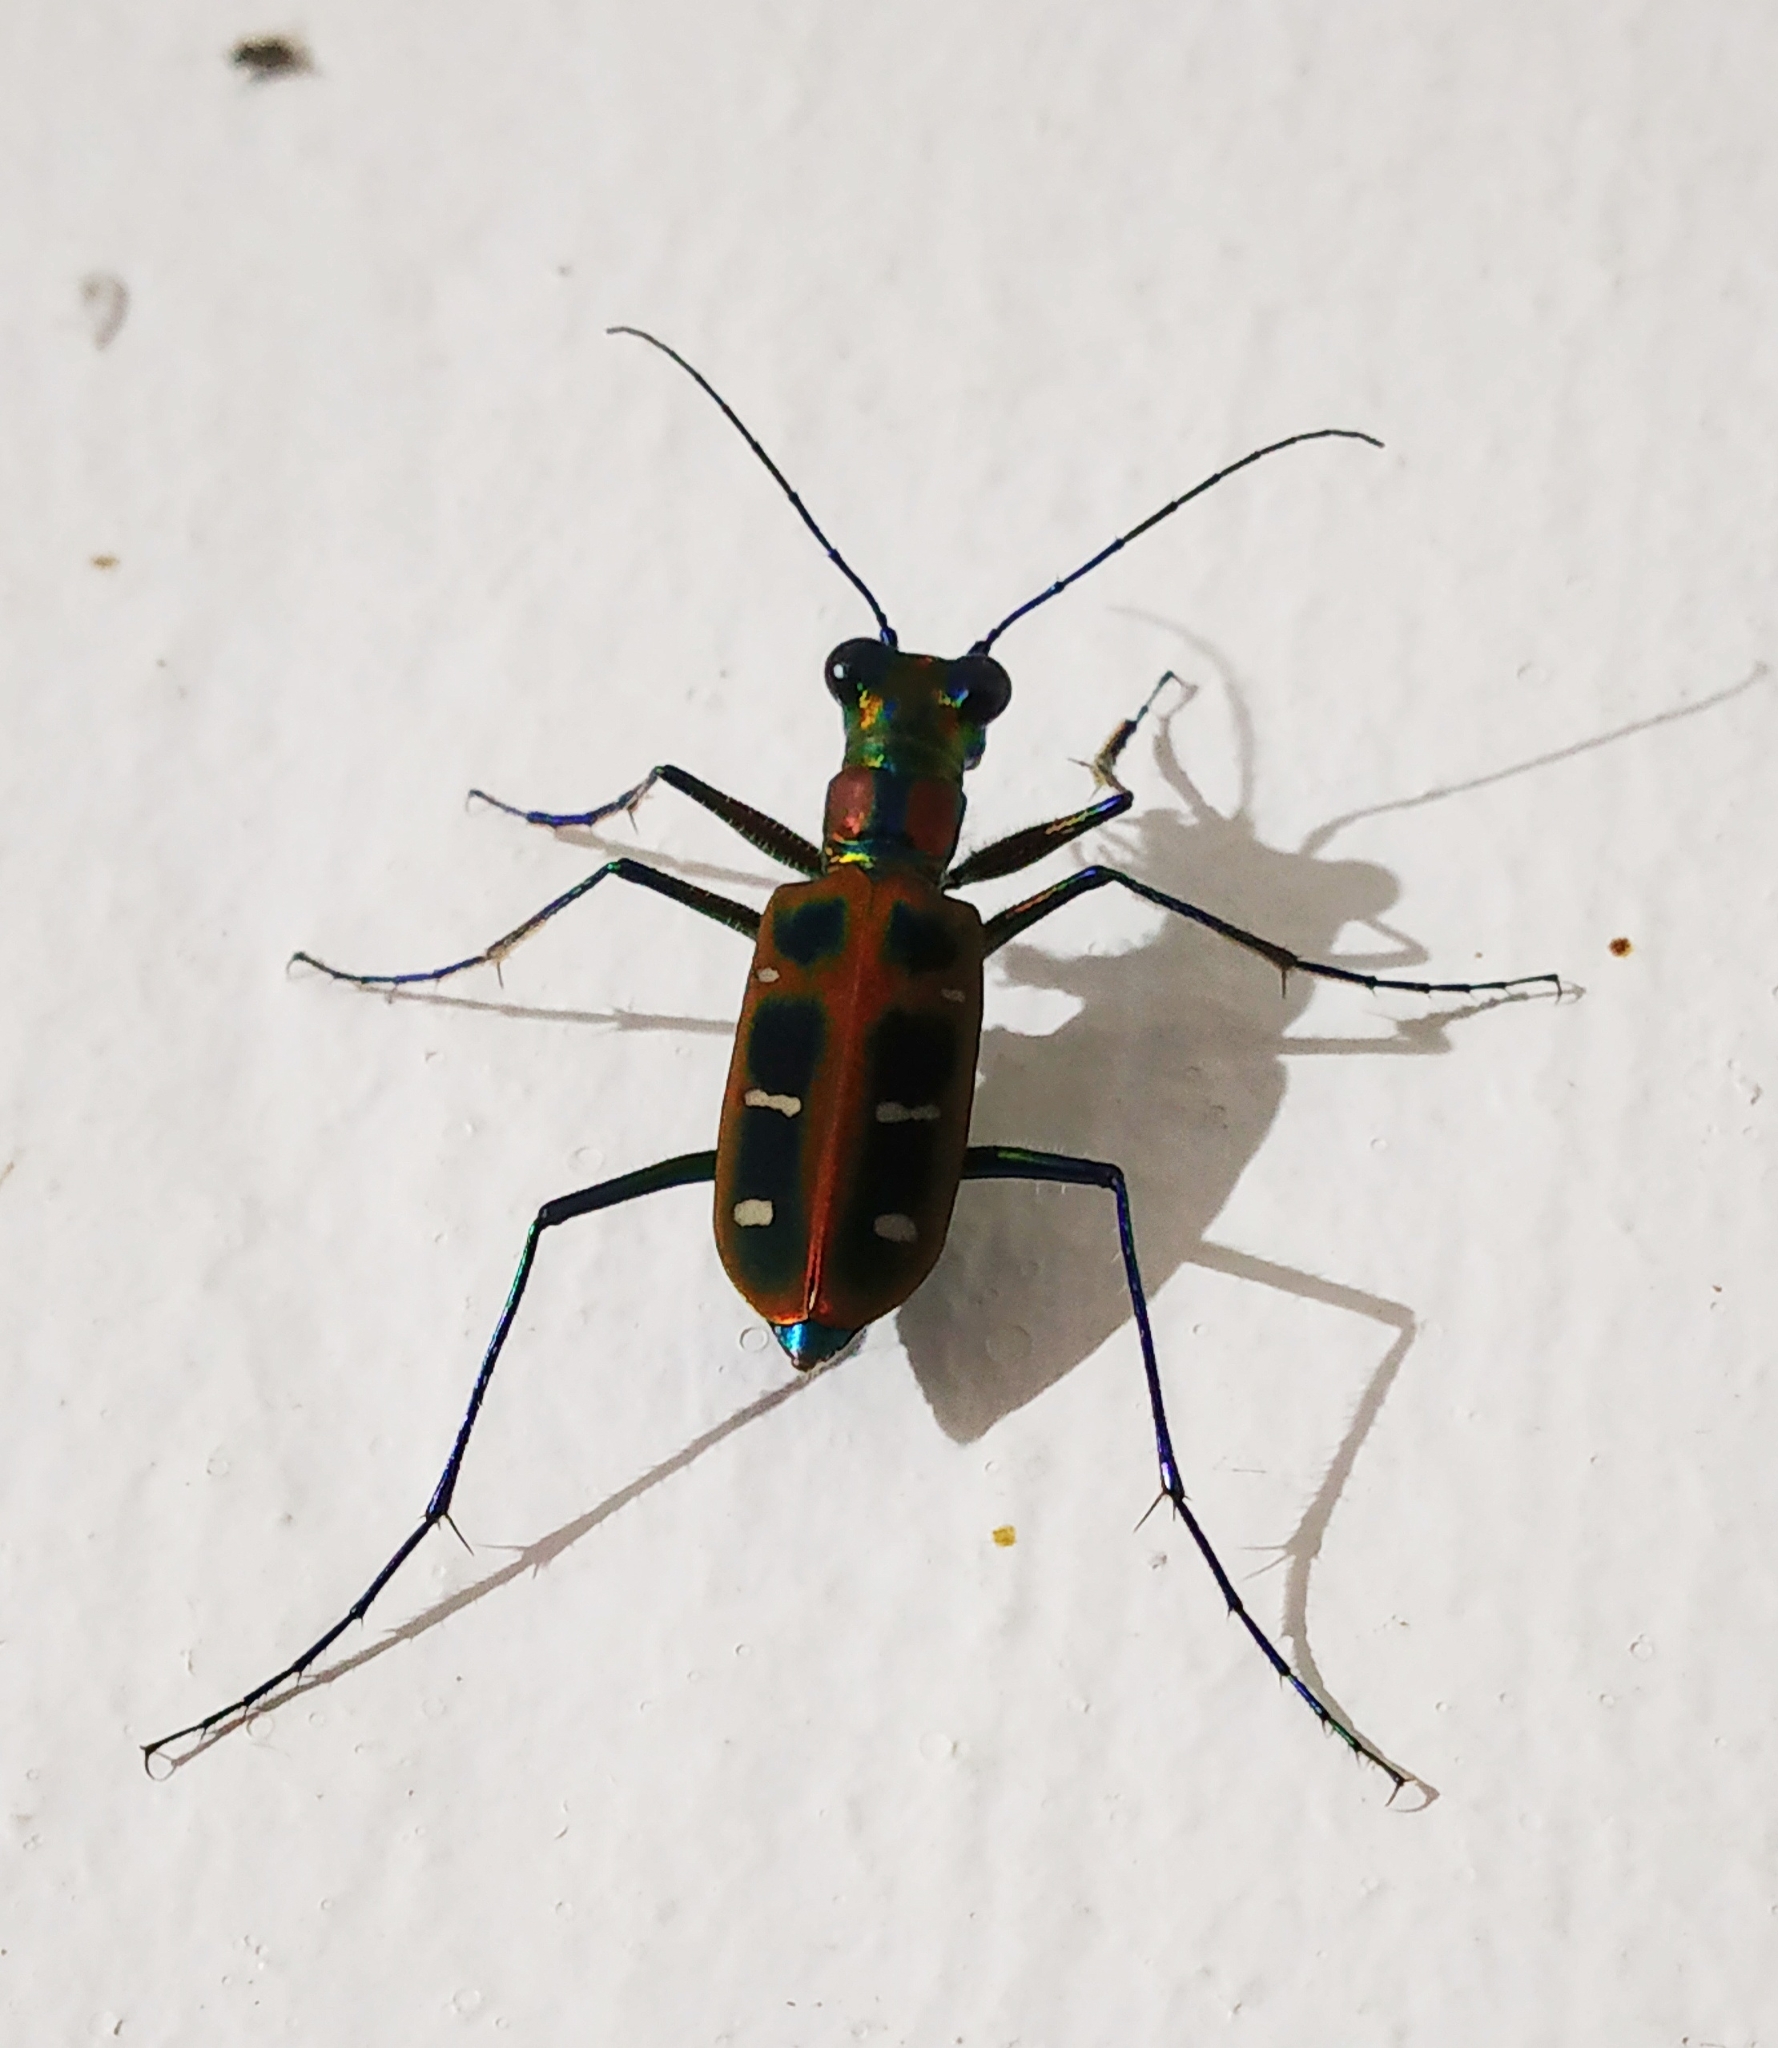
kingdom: Animalia
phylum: Arthropoda
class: Insecta
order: Coleoptera
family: Carabidae
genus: Cicindela
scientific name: Cicindela barmanica
